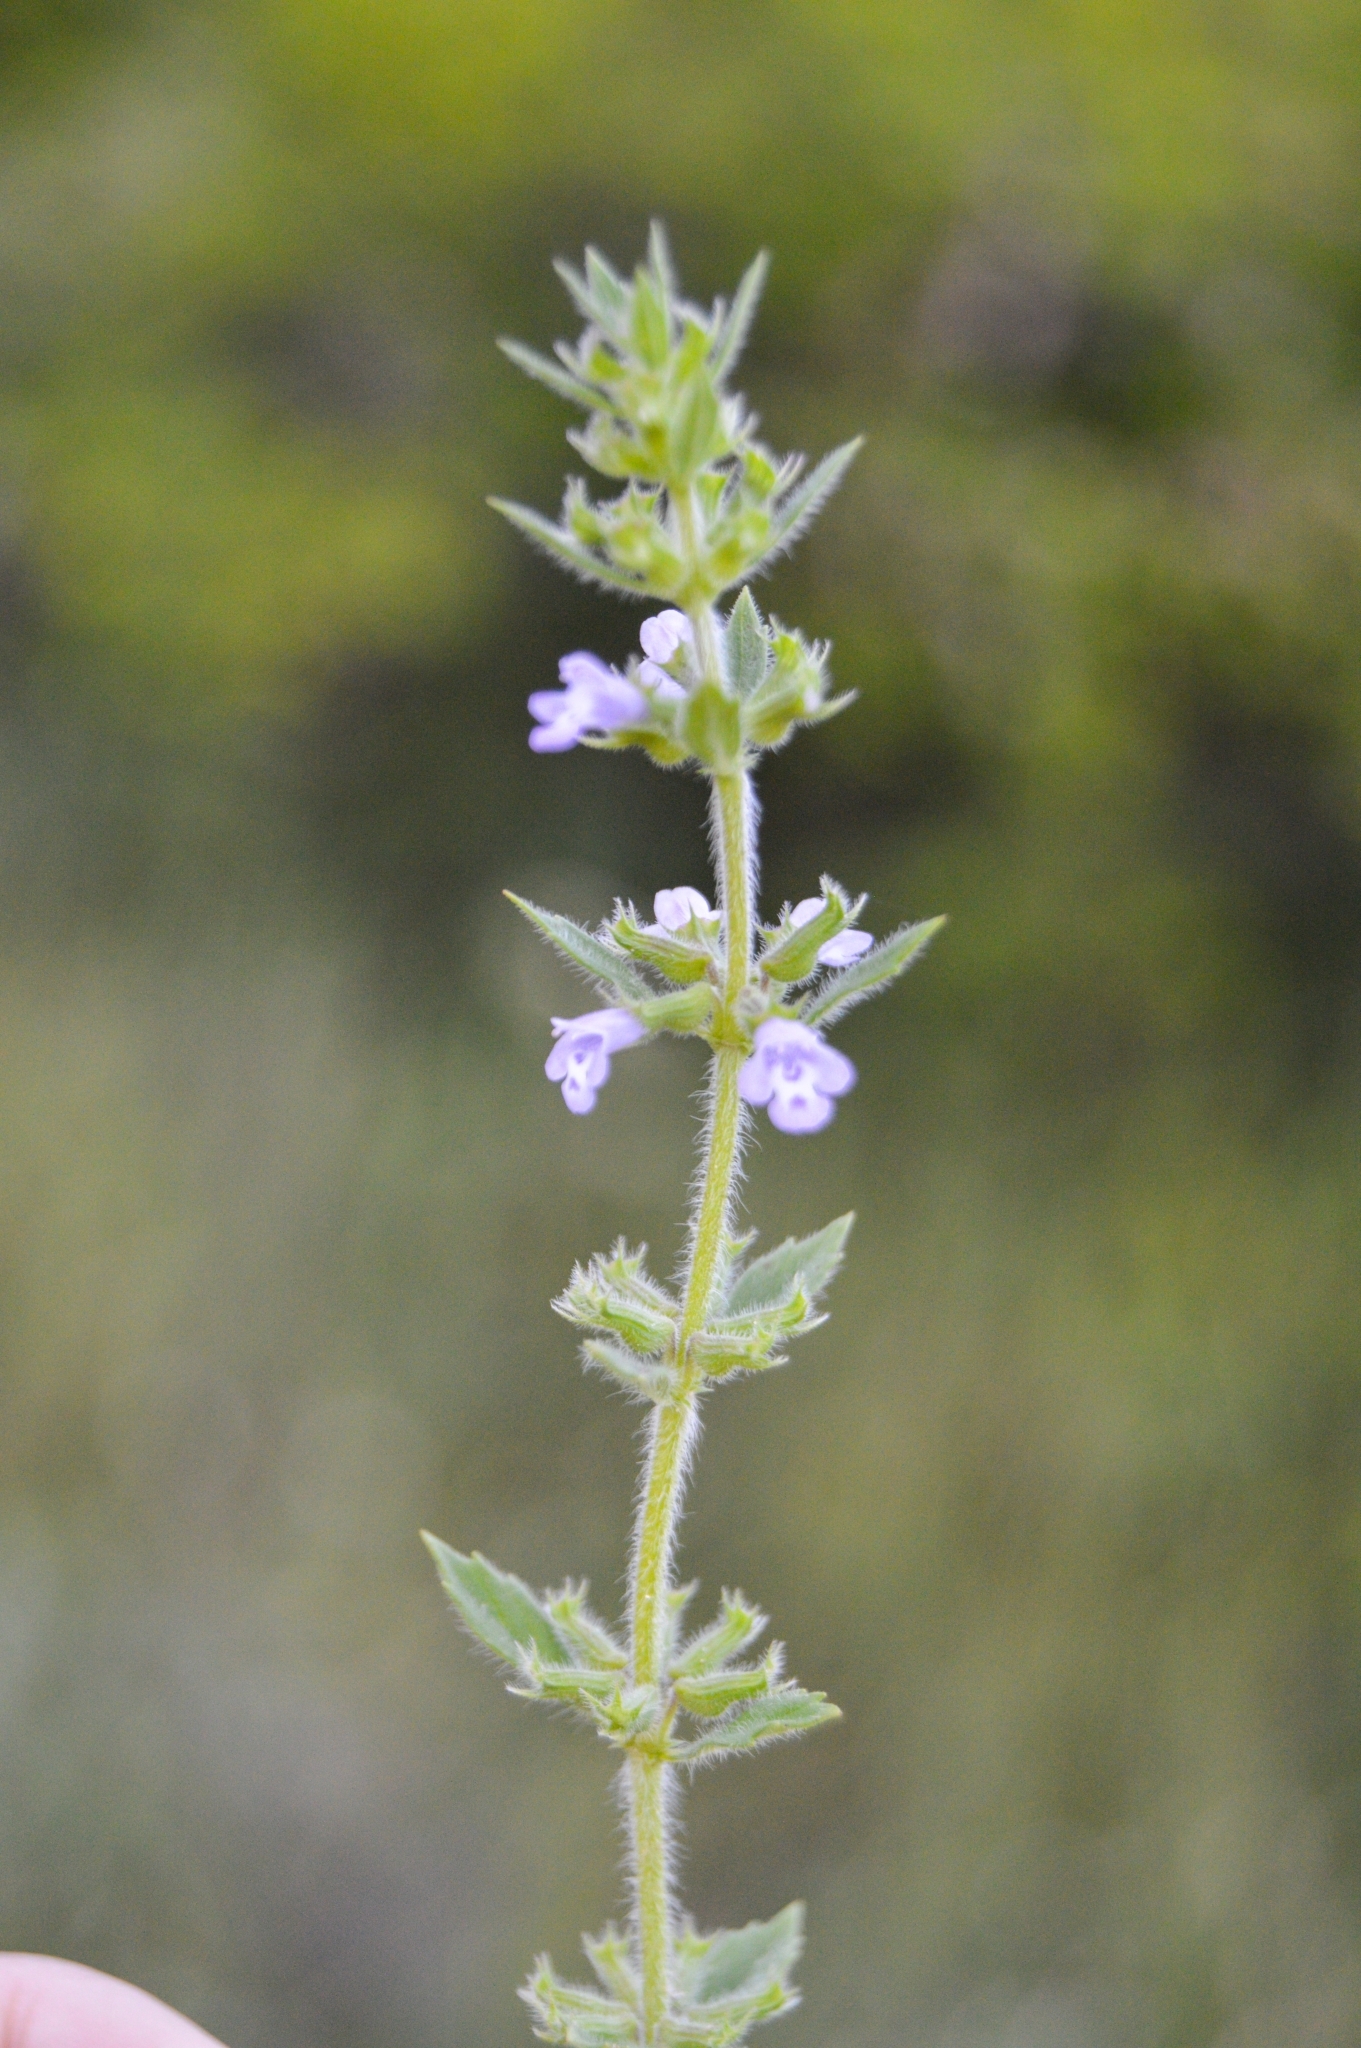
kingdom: Plantae
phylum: Tracheophyta
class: Magnoliopsida
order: Lamiales
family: Lamiaceae
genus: Clinopodium
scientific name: Clinopodium acinos
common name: Basil thyme
